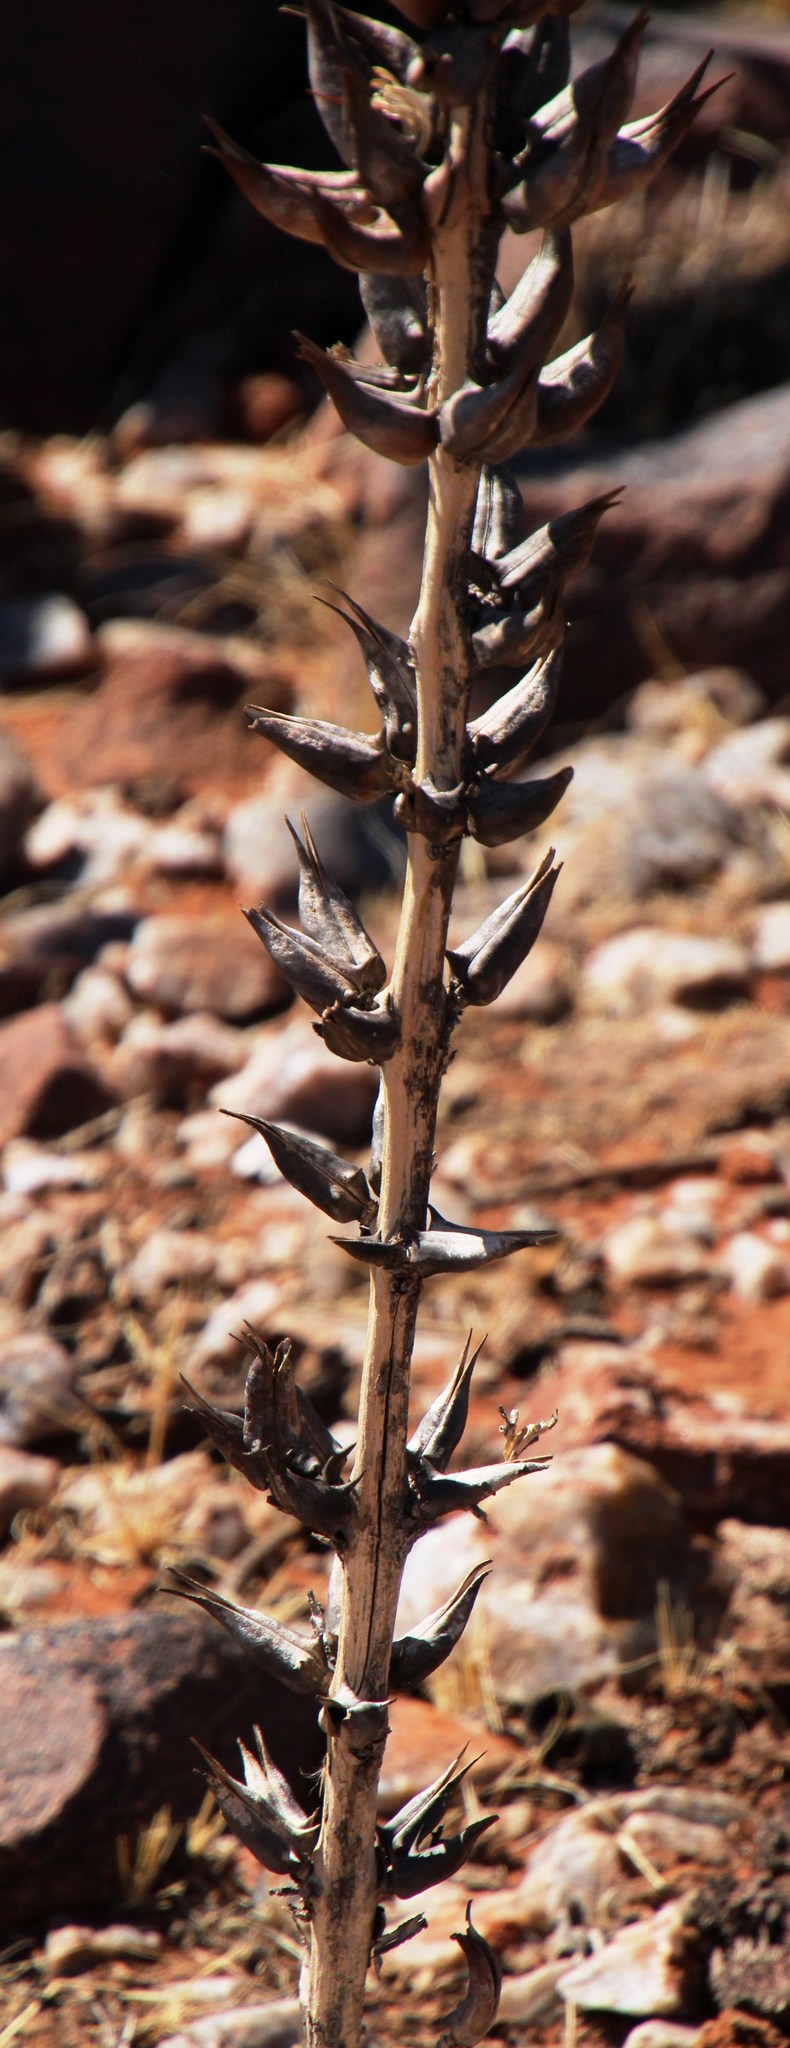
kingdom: Plantae
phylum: Tracheophyta
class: Magnoliopsida
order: Lamiales
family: Pedaliaceae
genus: Rogeria
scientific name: Rogeria longiflora
